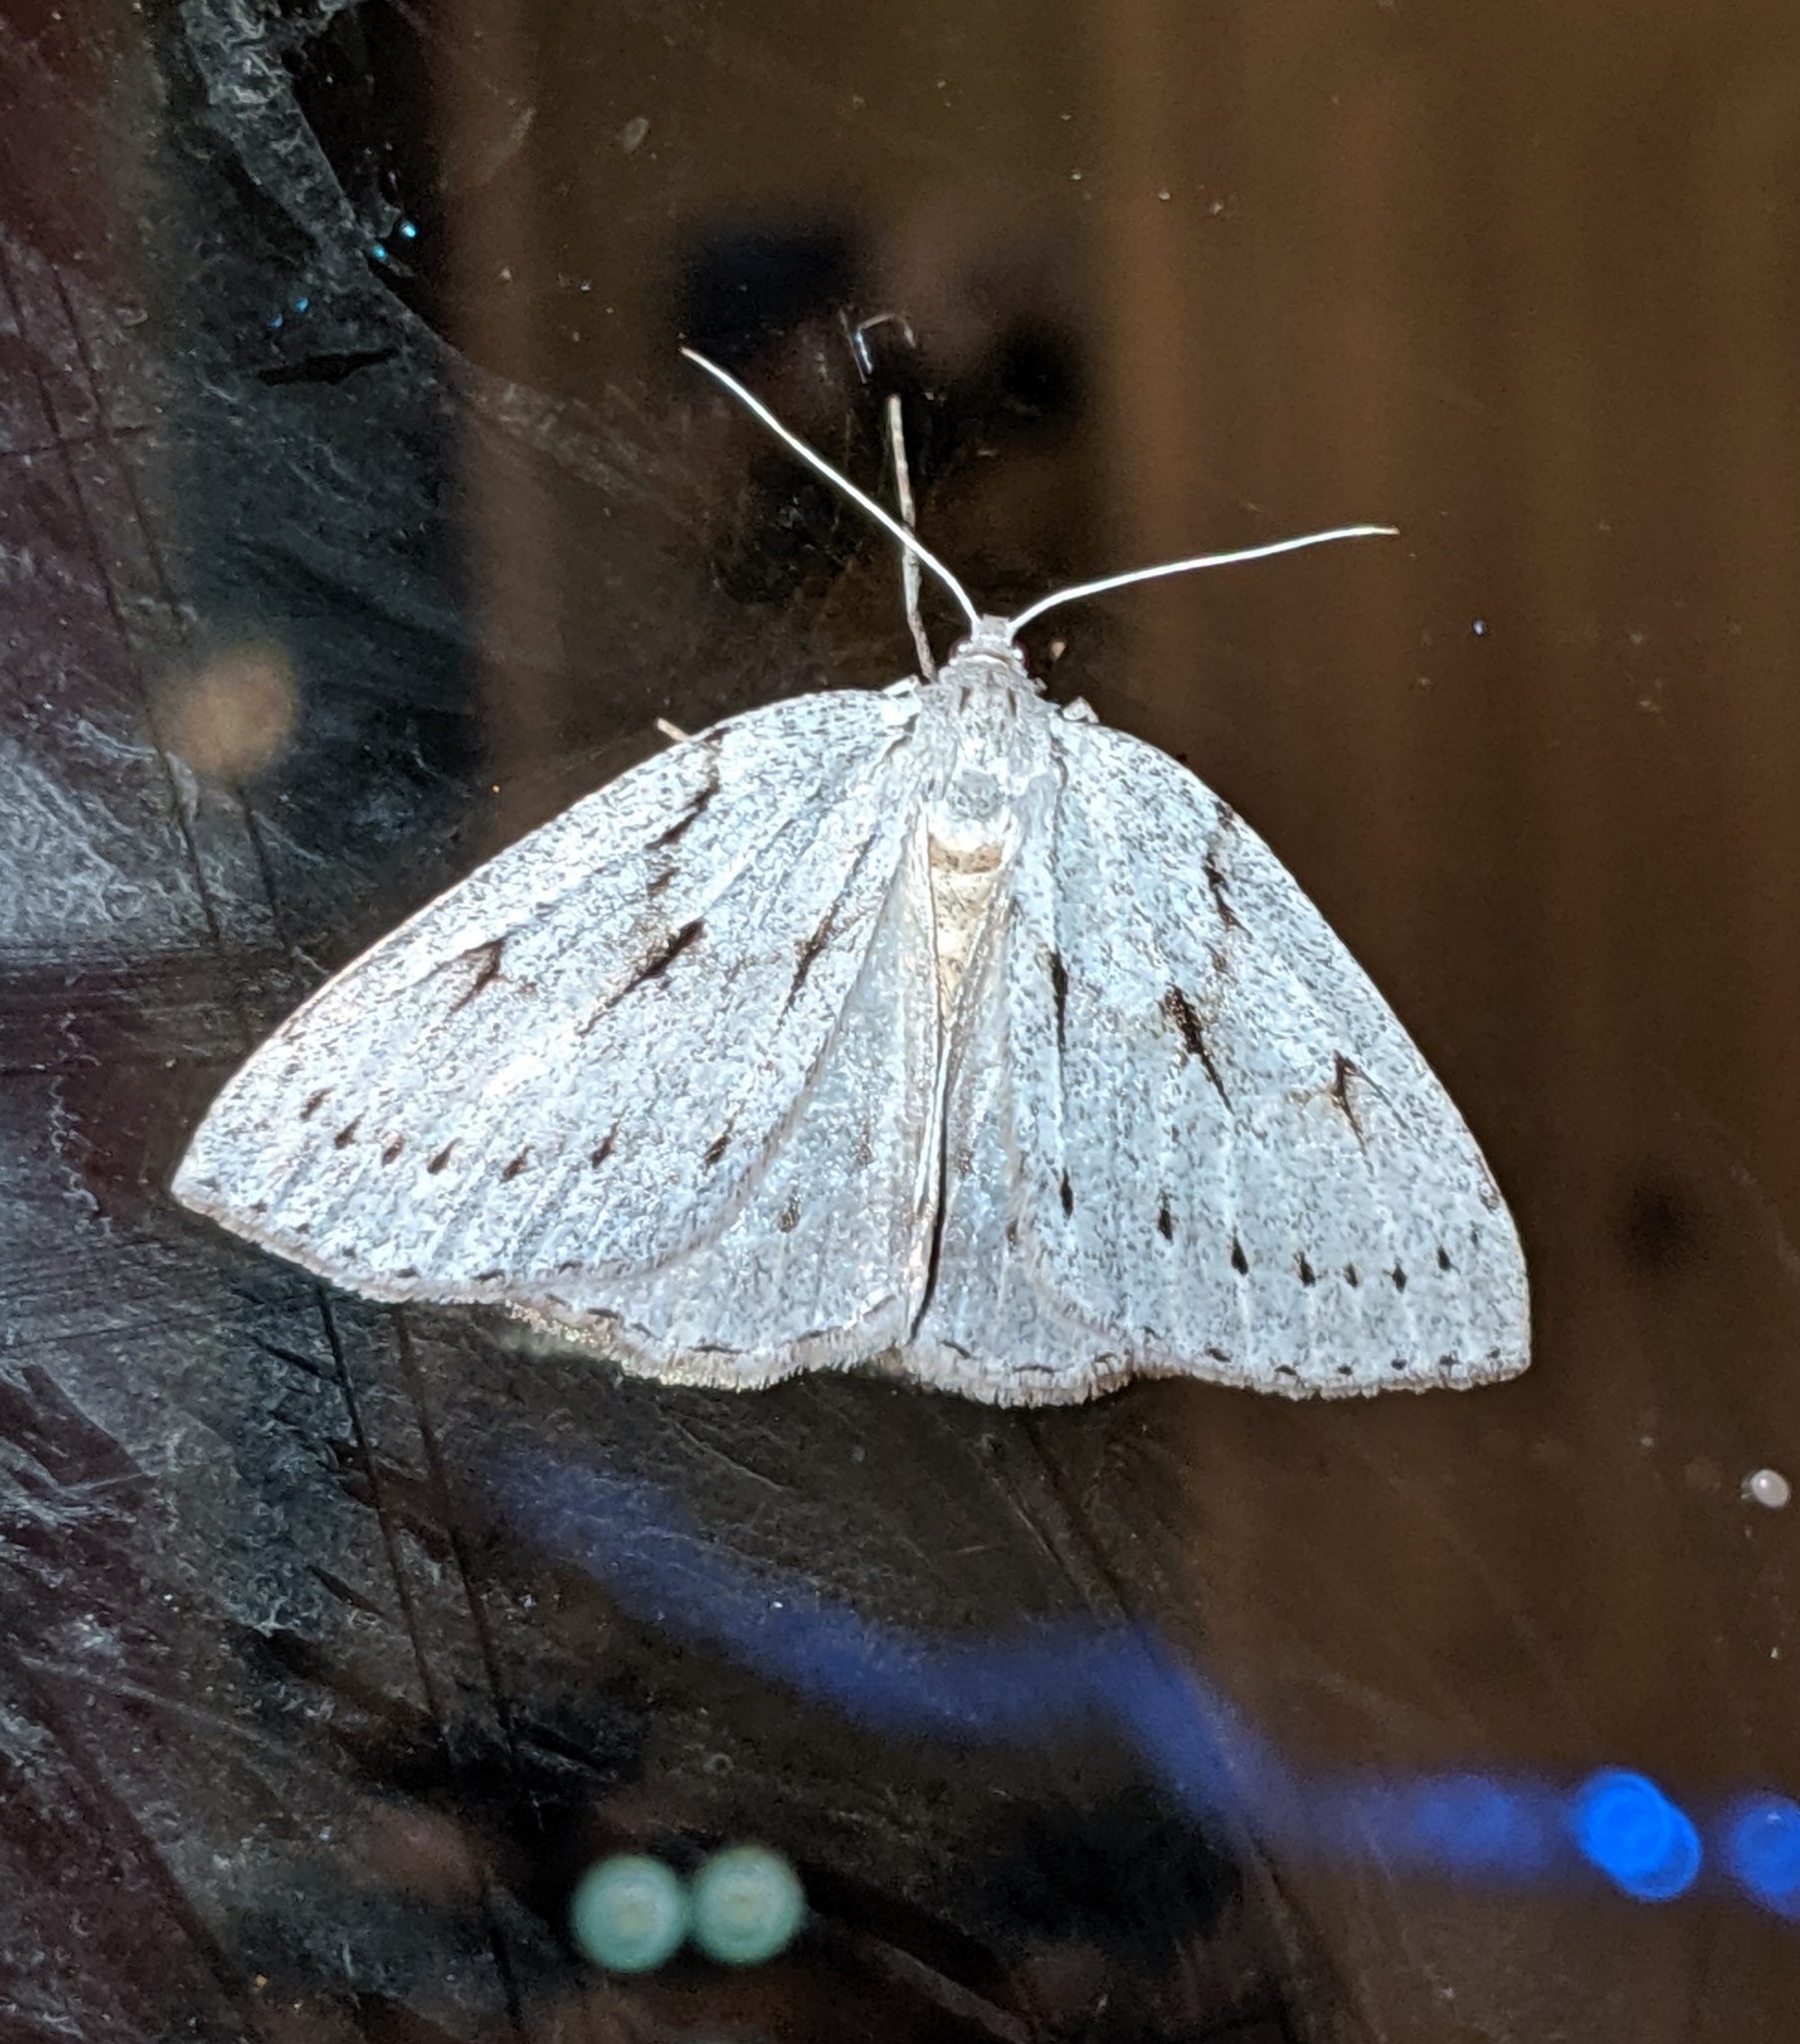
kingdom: Animalia
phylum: Arthropoda
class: Insecta
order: Lepidoptera
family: Geometridae
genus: Philedia
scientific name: Philedia punctomacularia
